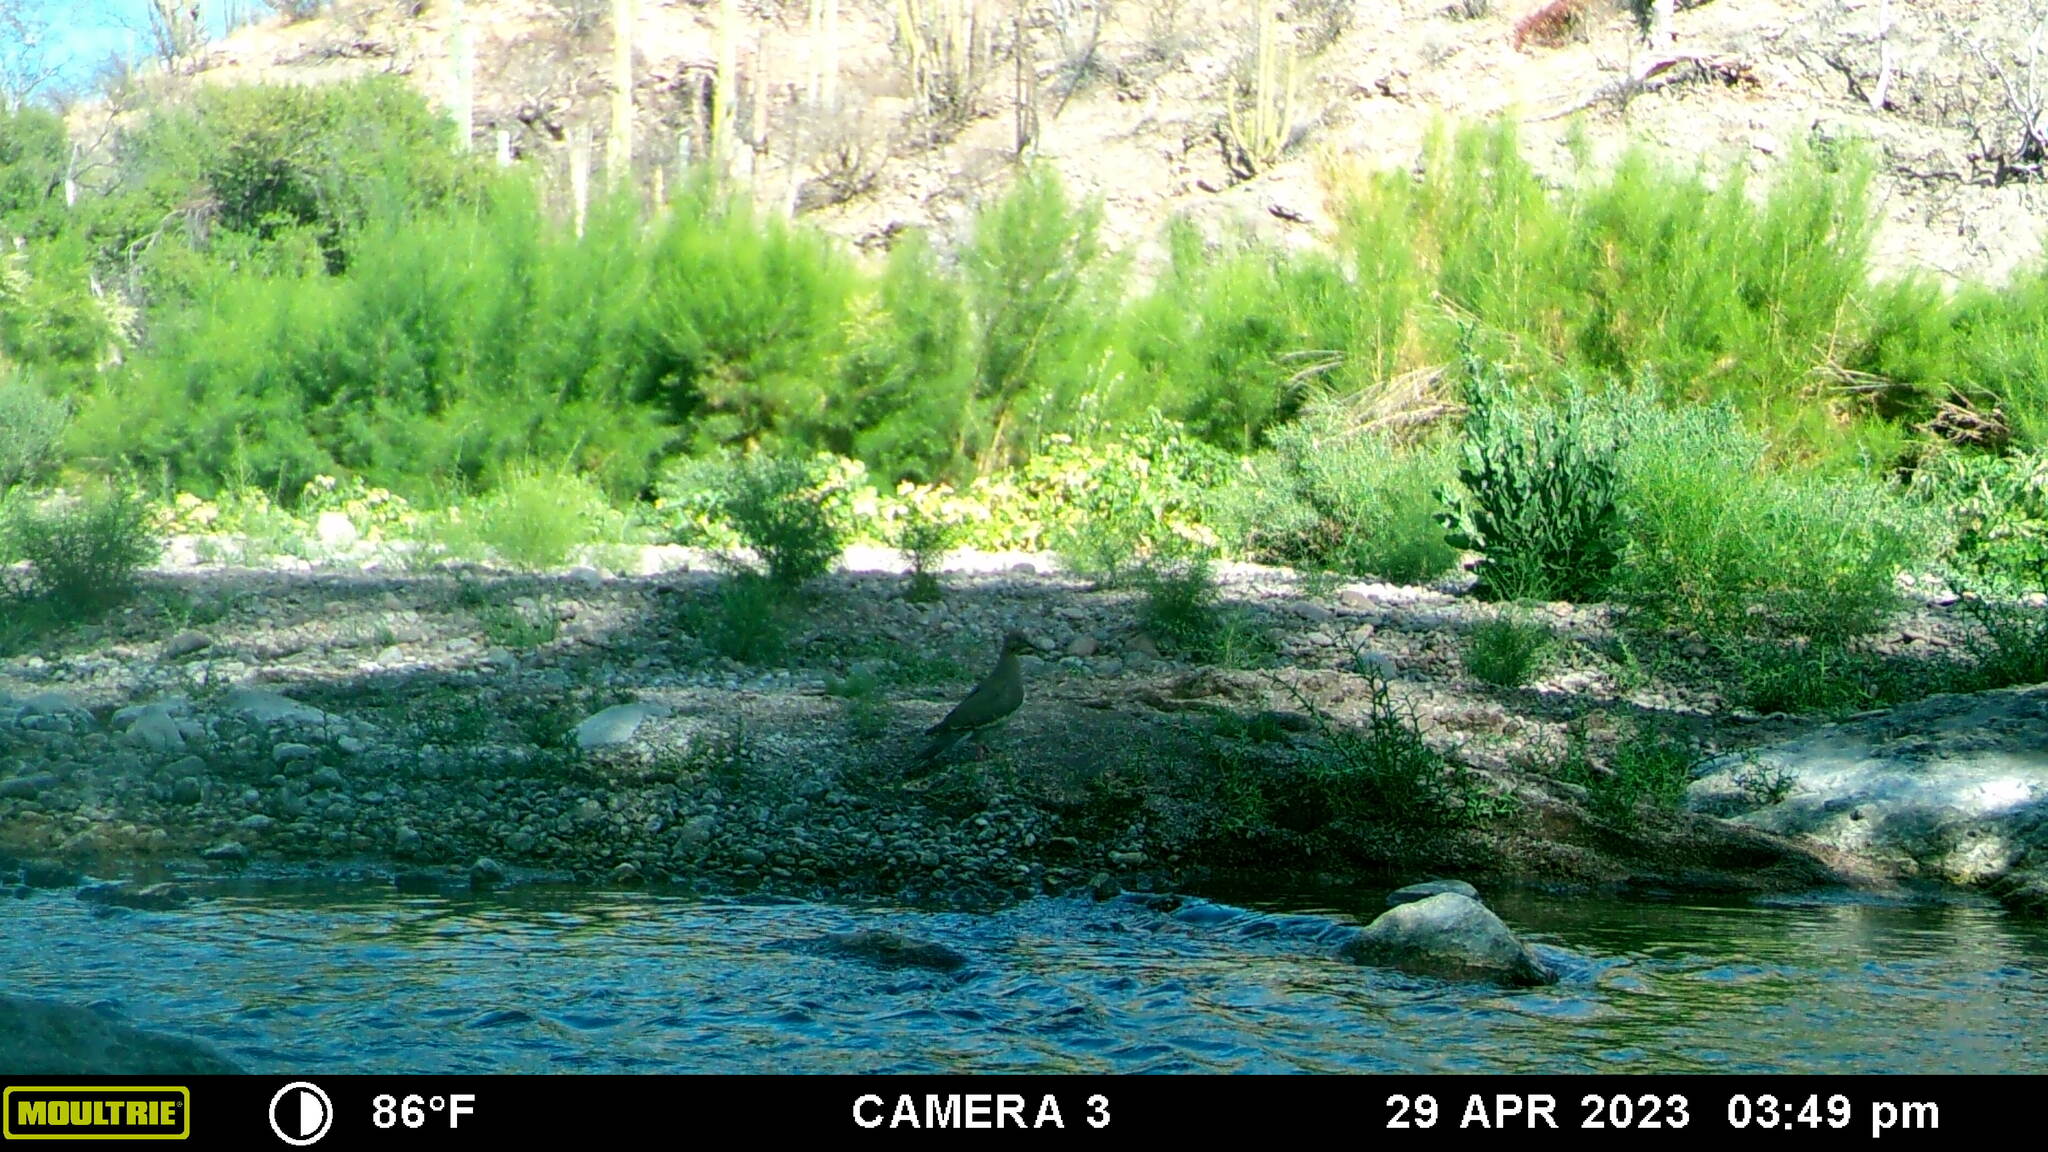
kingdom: Animalia
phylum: Chordata
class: Aves
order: Columbiformes
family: Columbidae
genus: Zenaida
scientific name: Zenaida asiatica
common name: White-winged dove
